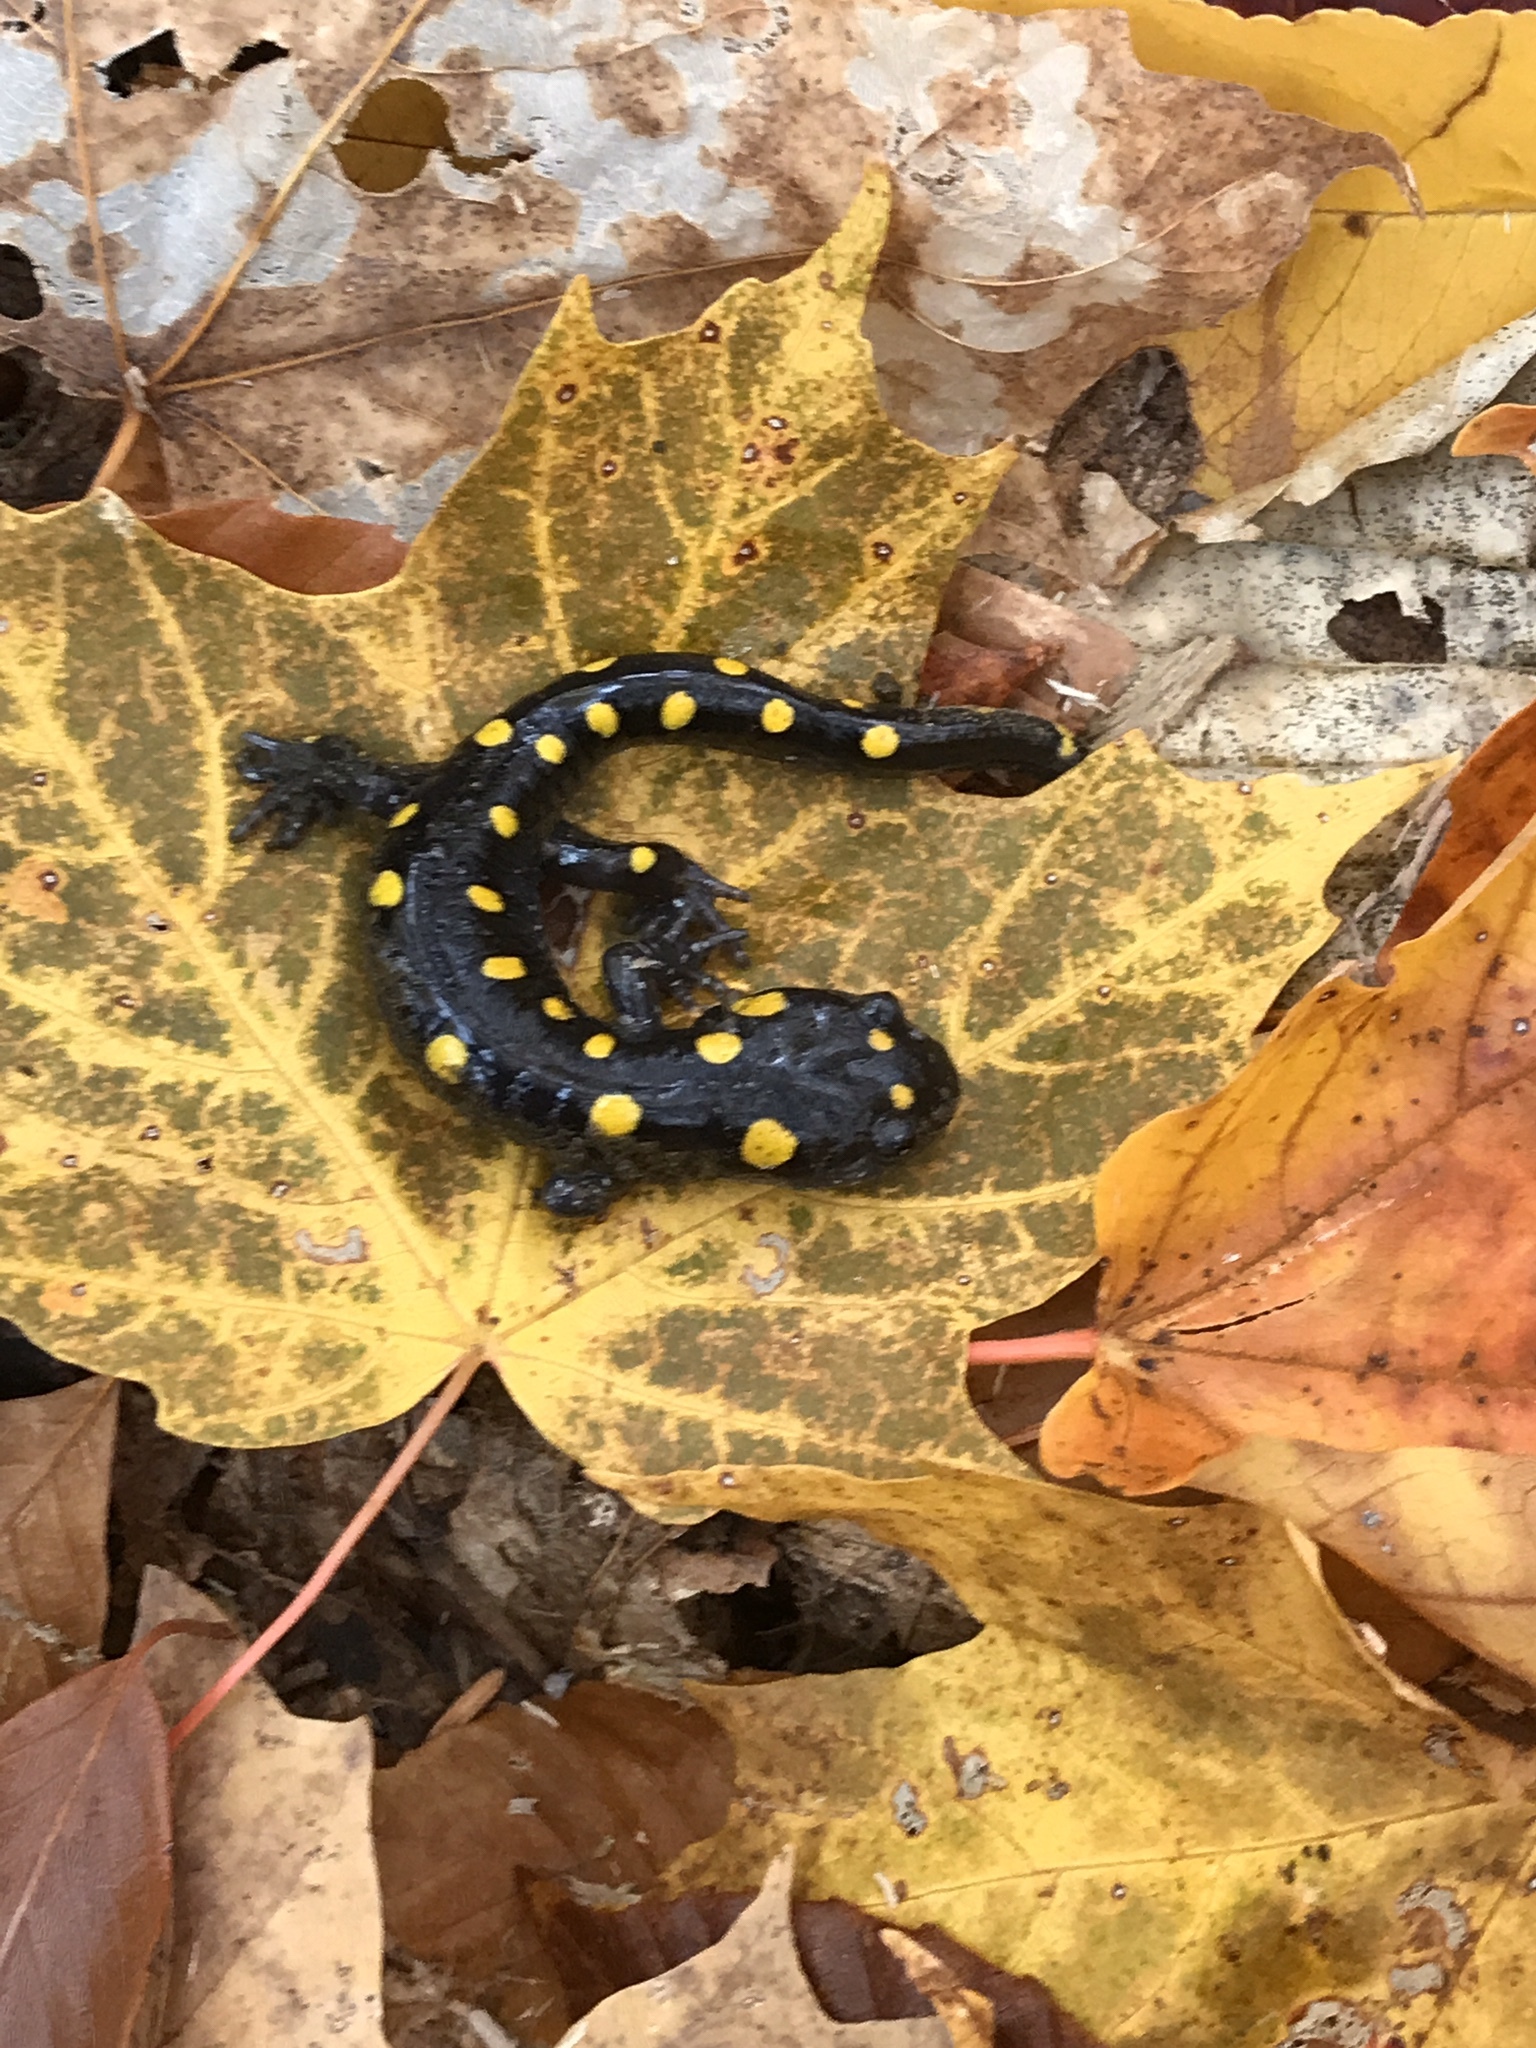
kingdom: Animalia
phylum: Chordata
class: Amphibia
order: Caudata
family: Ambystomatidae
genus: Ambystoma
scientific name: Ambystoma maculatum
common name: Spotted salamander
